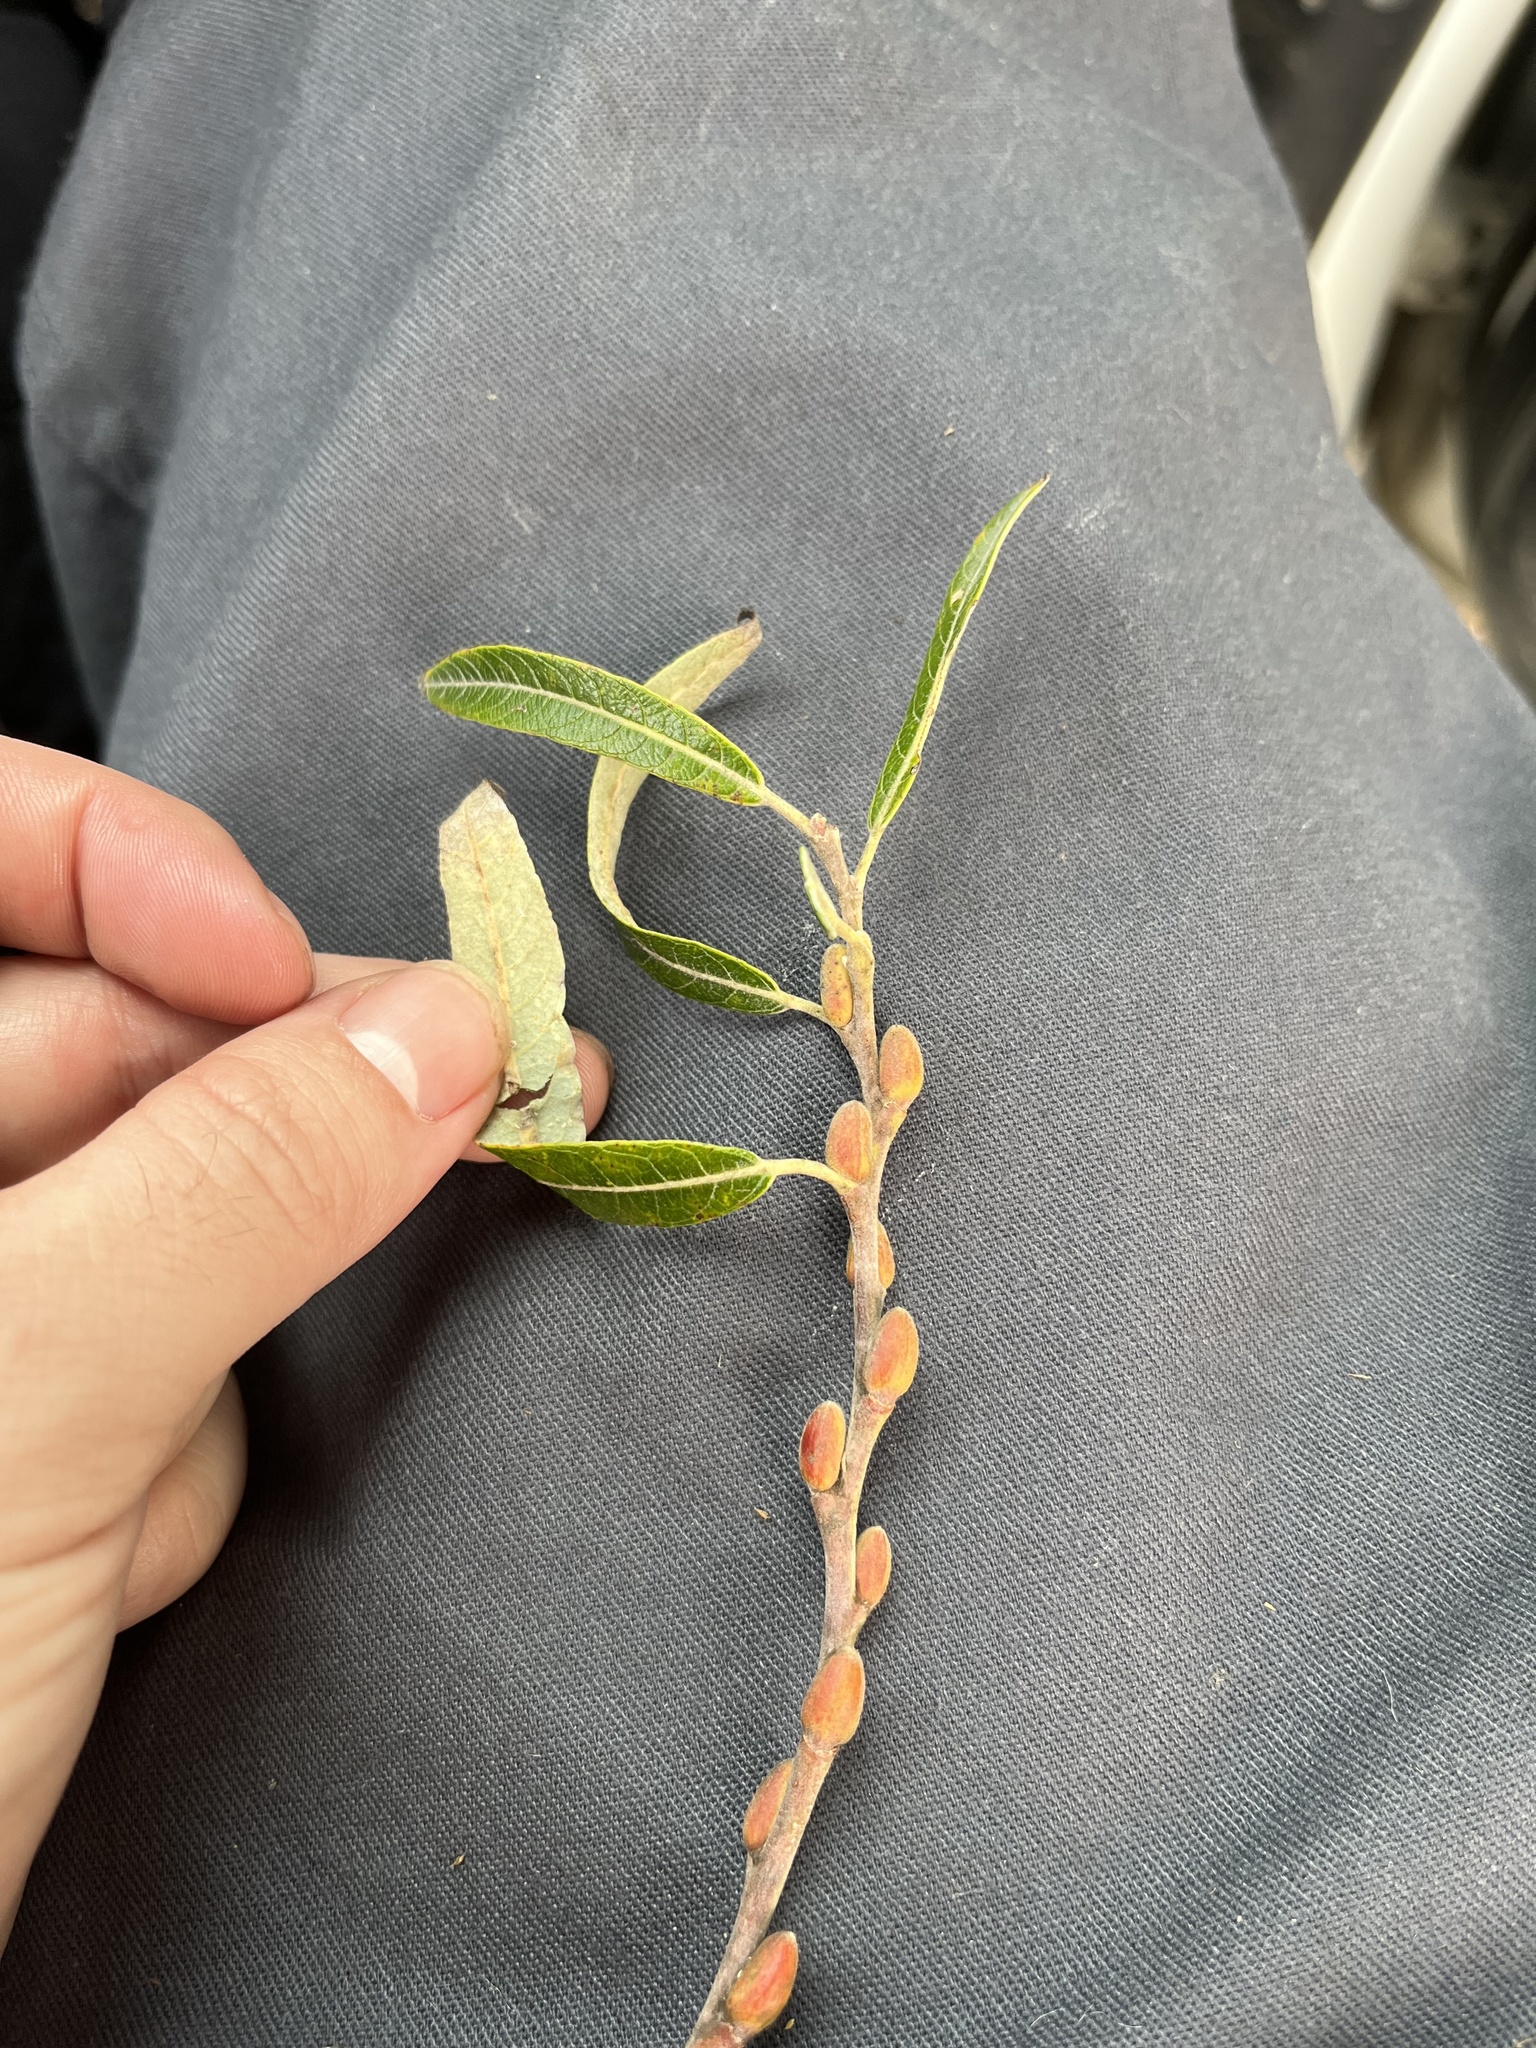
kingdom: Plantae
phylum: Tracheophyta
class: Magnoliopsida
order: Malpighiales
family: Salicaceae
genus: Salix
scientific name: Salix lasiolepis
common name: Arroyo willow
